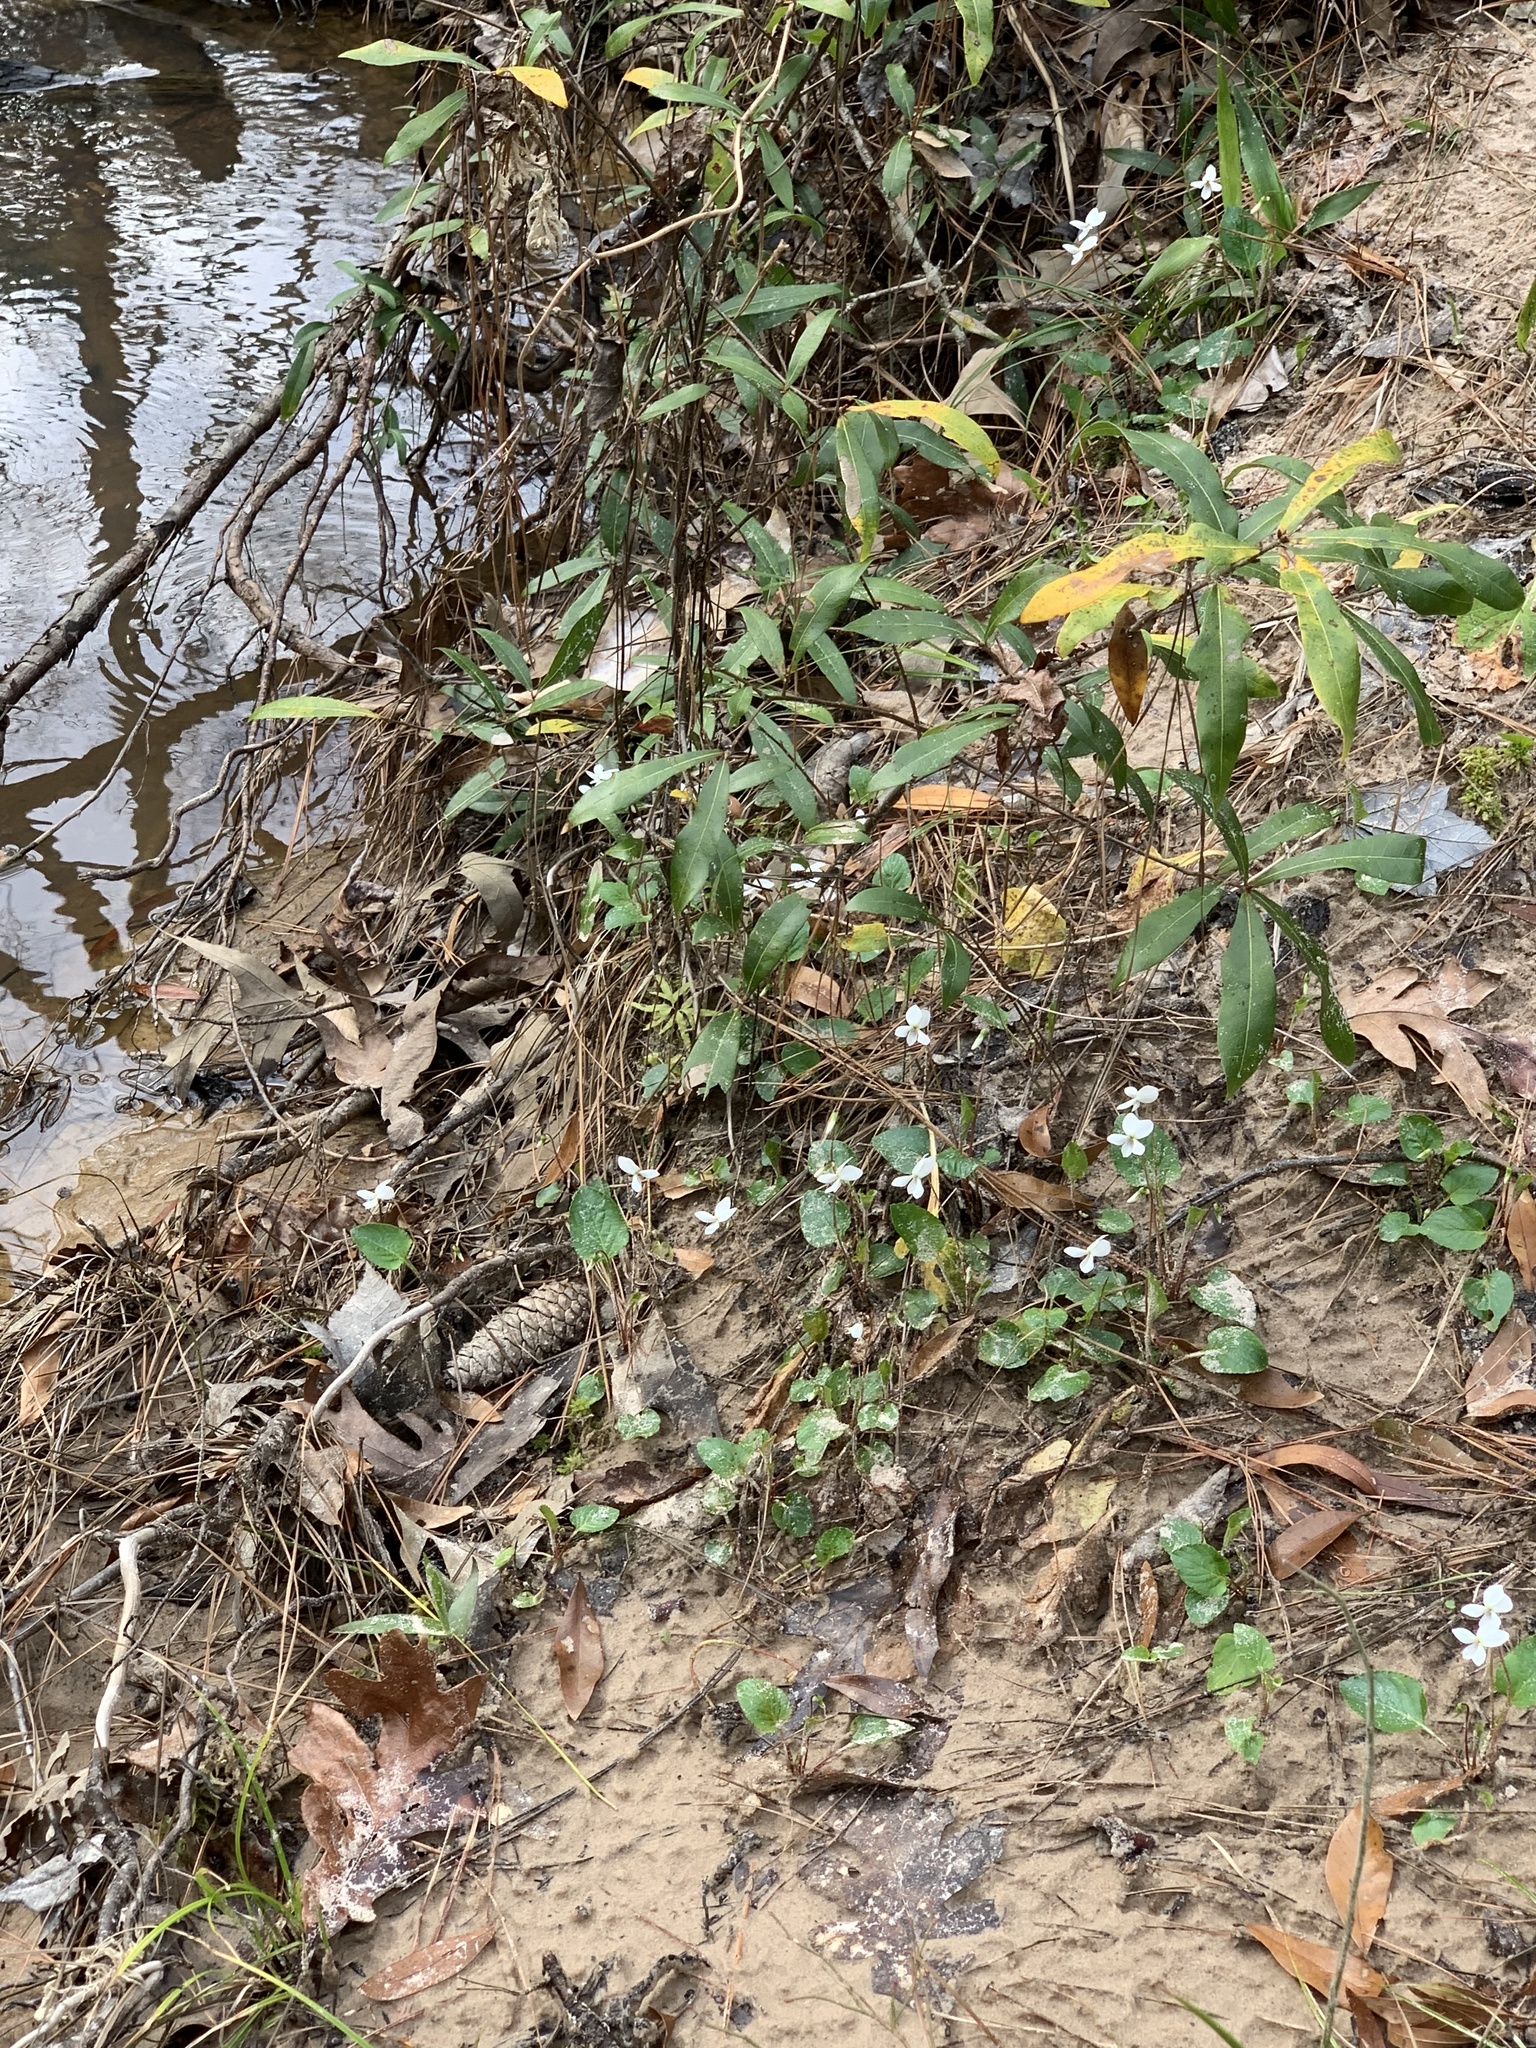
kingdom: Plantae
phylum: Tracheophyta
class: Magnoliopsida
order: Malpighiales
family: Violaceae
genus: Viola
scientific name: Viola primulifolia
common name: Primrose-leaf violet
